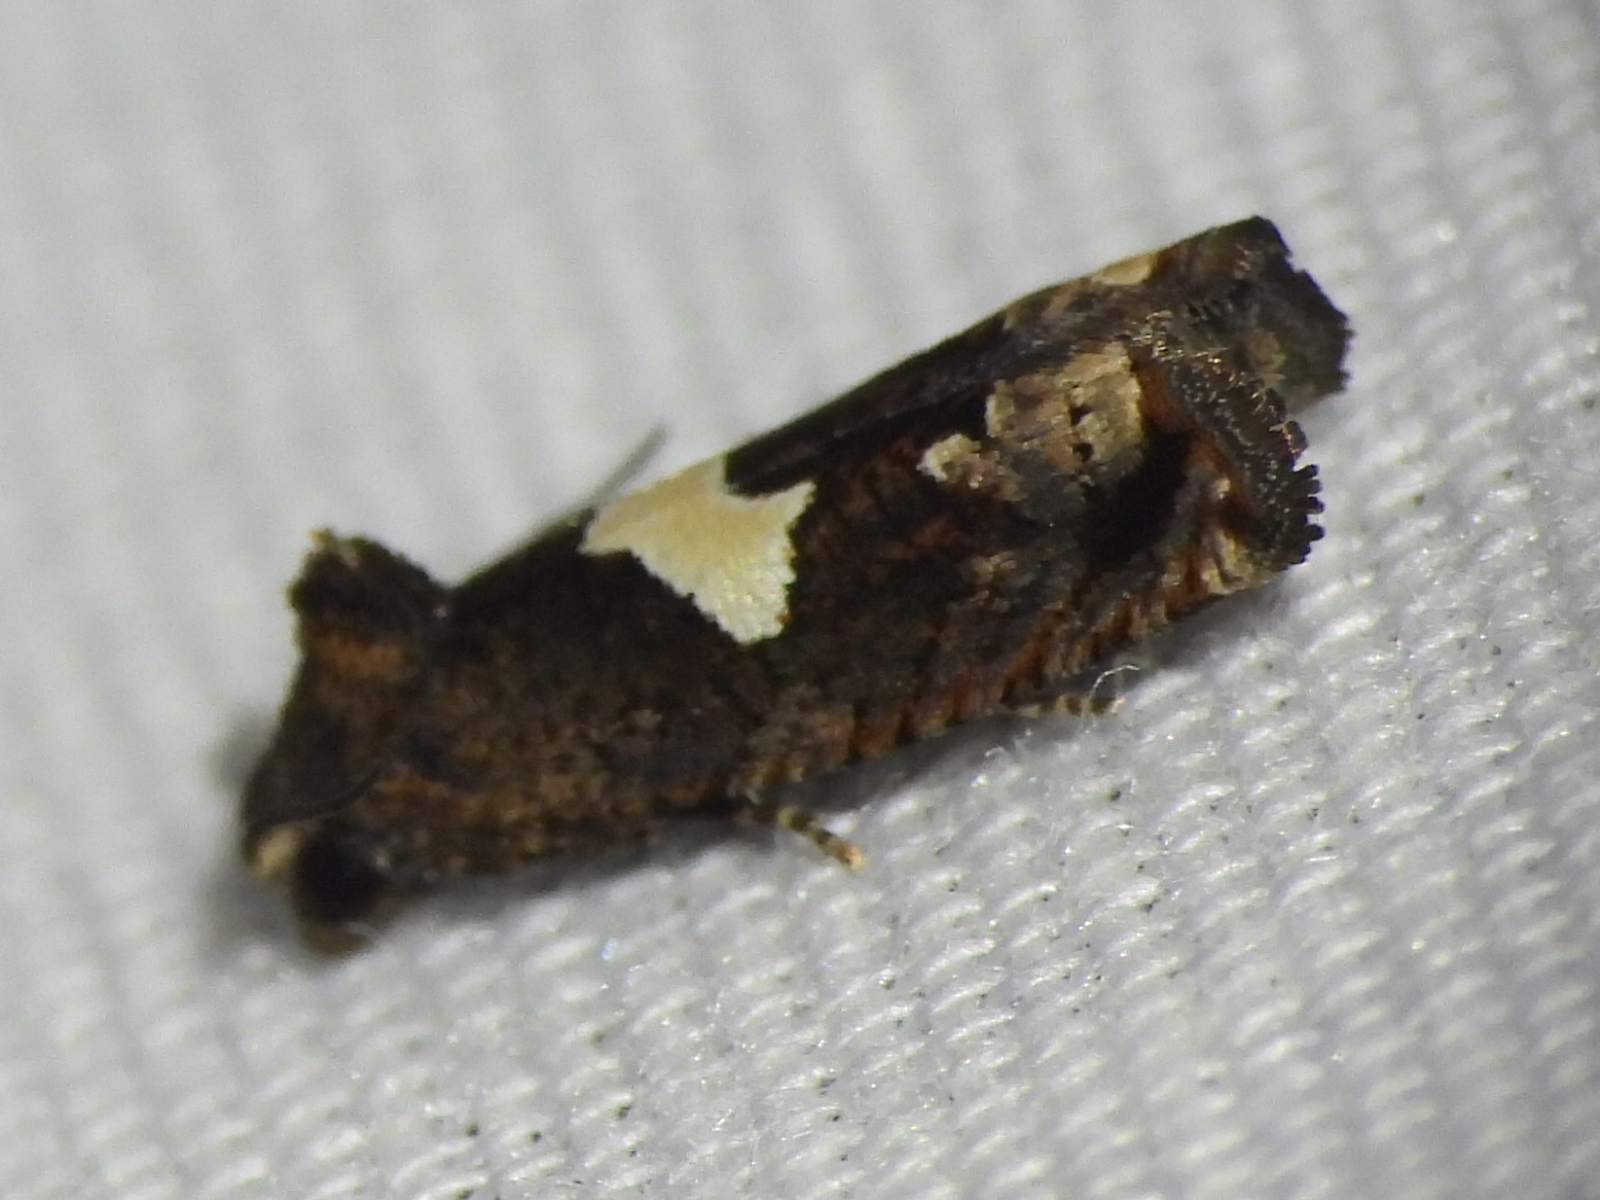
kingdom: Animalia
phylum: Arthropoda
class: Insecta
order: Lepidoptera
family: Tortricidae
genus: Epiblema
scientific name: Epiblema otiosana
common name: Bidens borer moth
